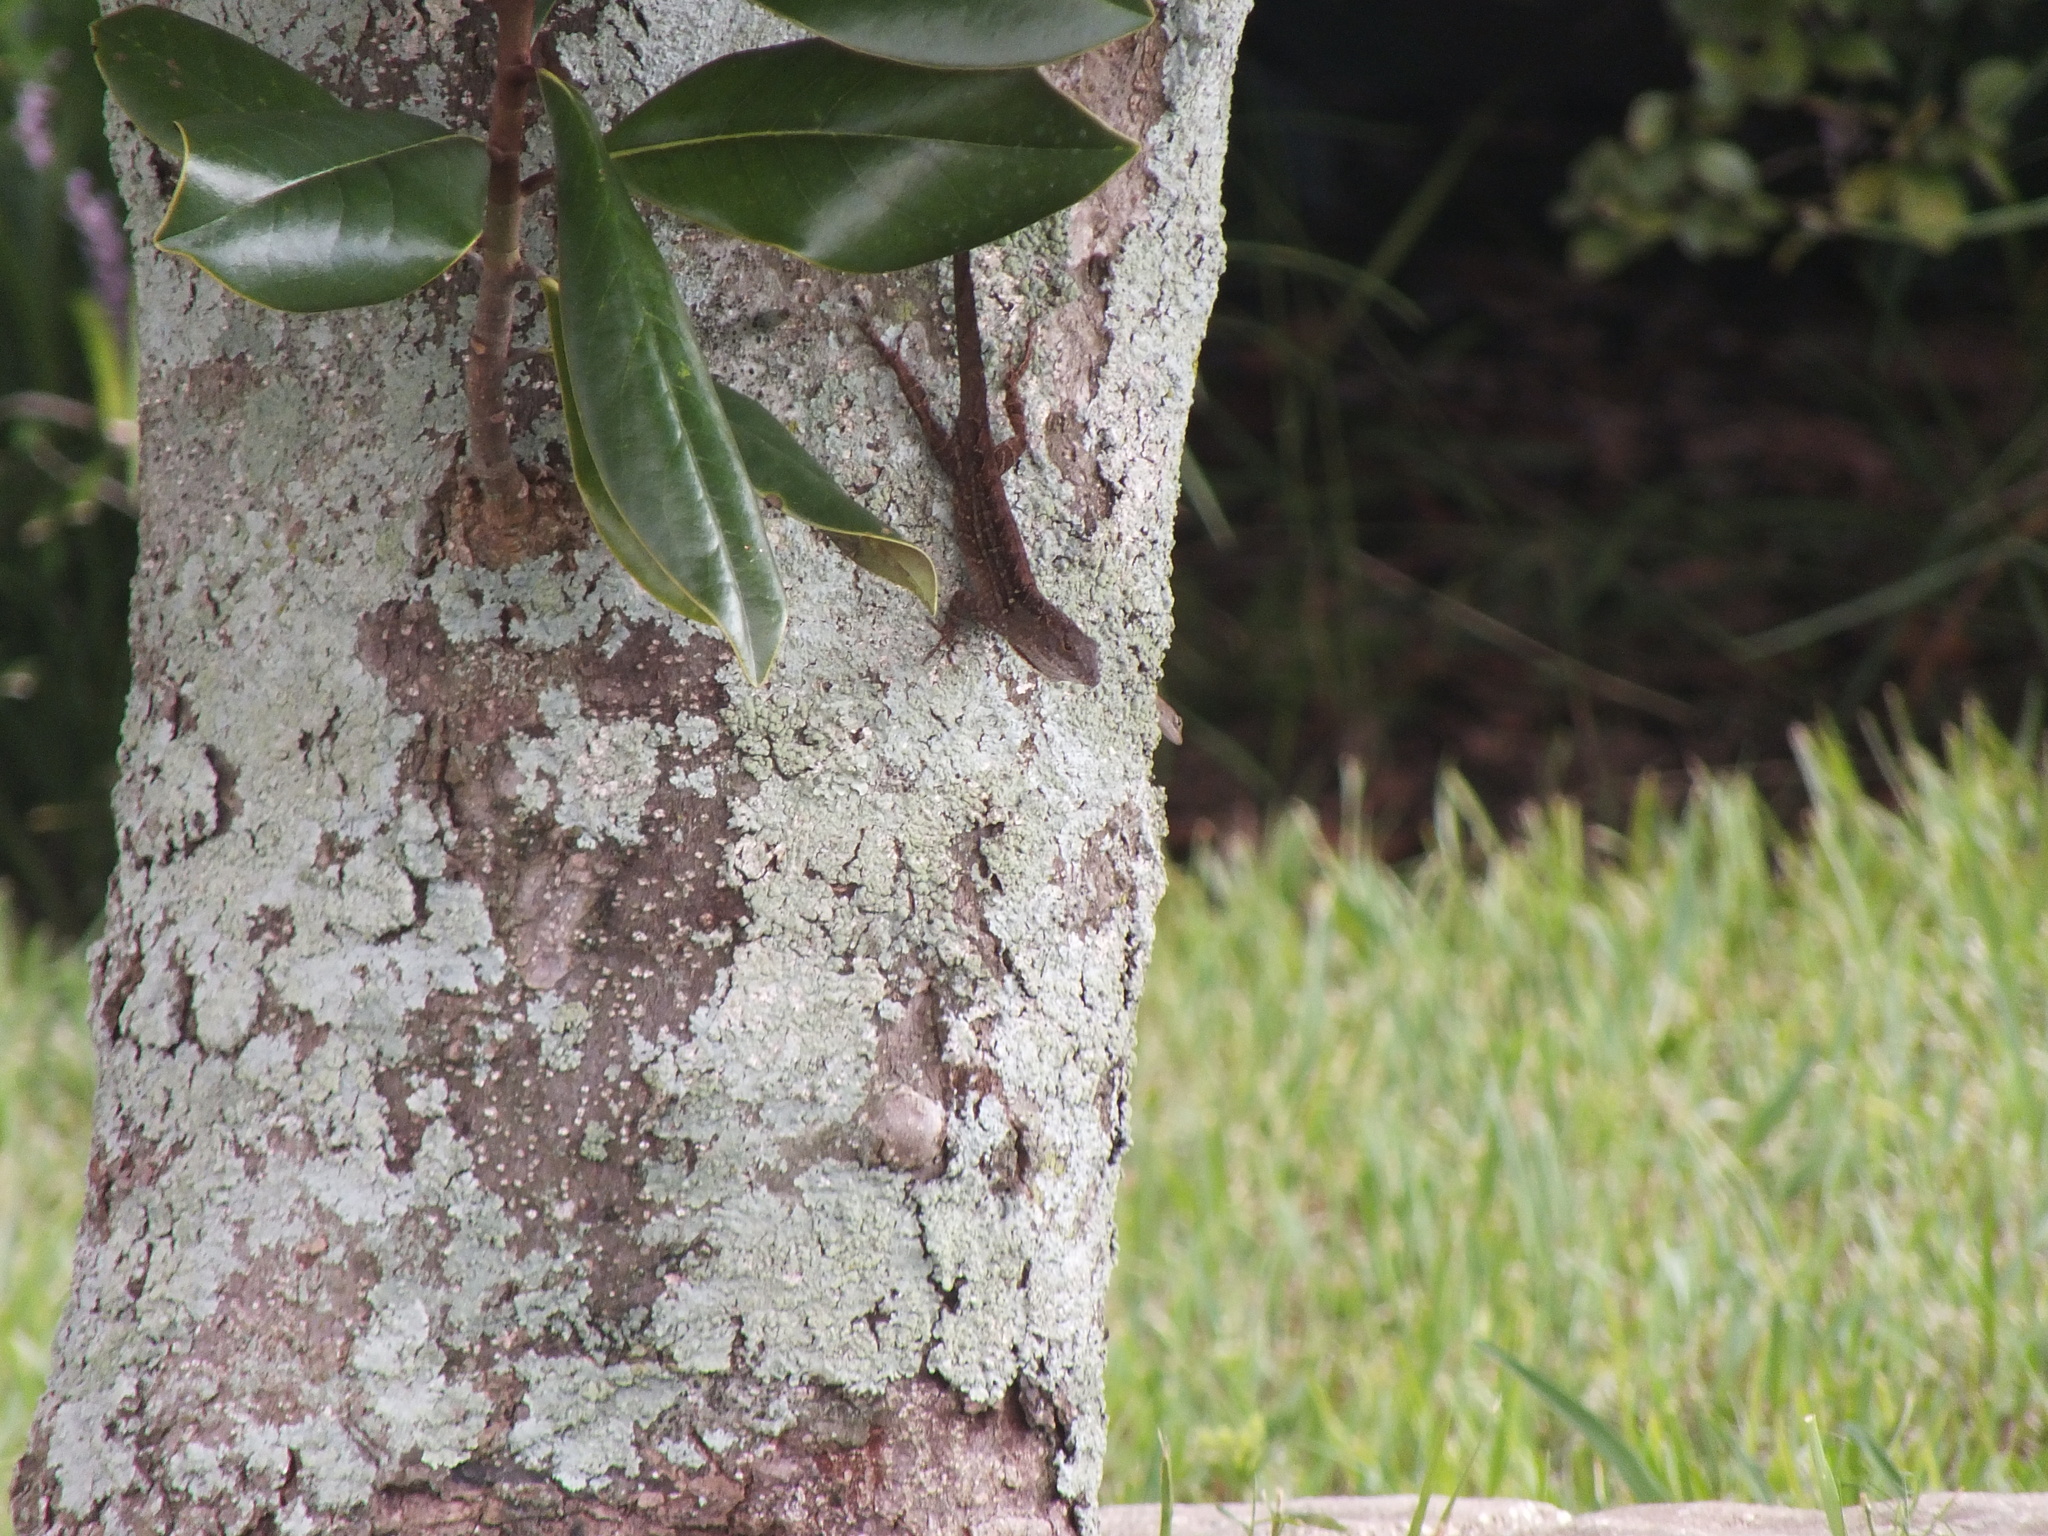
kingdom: Animalia
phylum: Chordata
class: Squamata
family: Dactyloidae
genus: Anolis
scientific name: Anolis sagrei
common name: Brown anole
